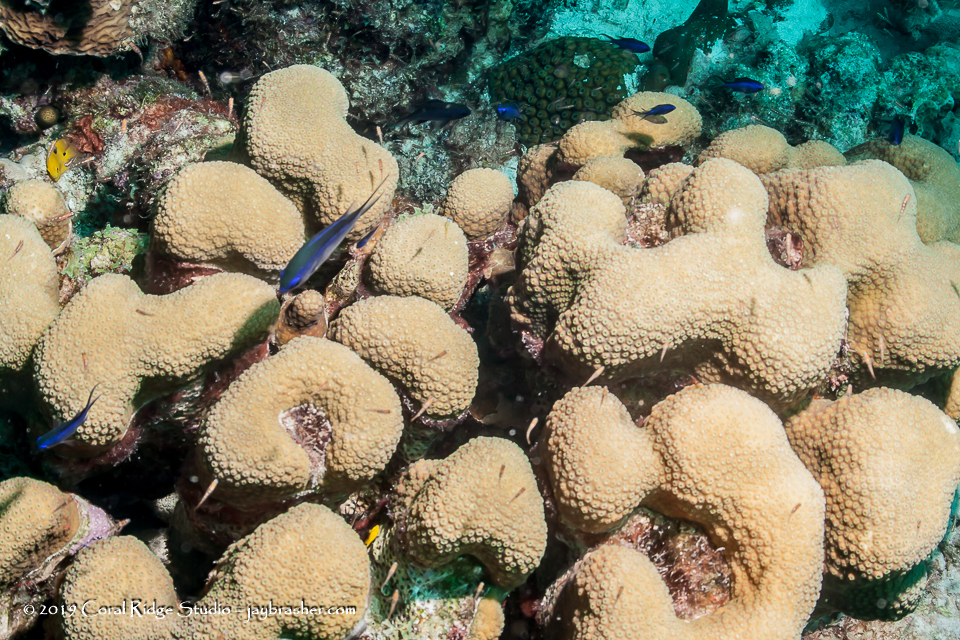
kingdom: Animalia
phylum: Cnidaria
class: Anthozoa
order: Scleractinia
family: Merulinidae
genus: Orbicella
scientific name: Orbicella annularis
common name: Boulder star coral
